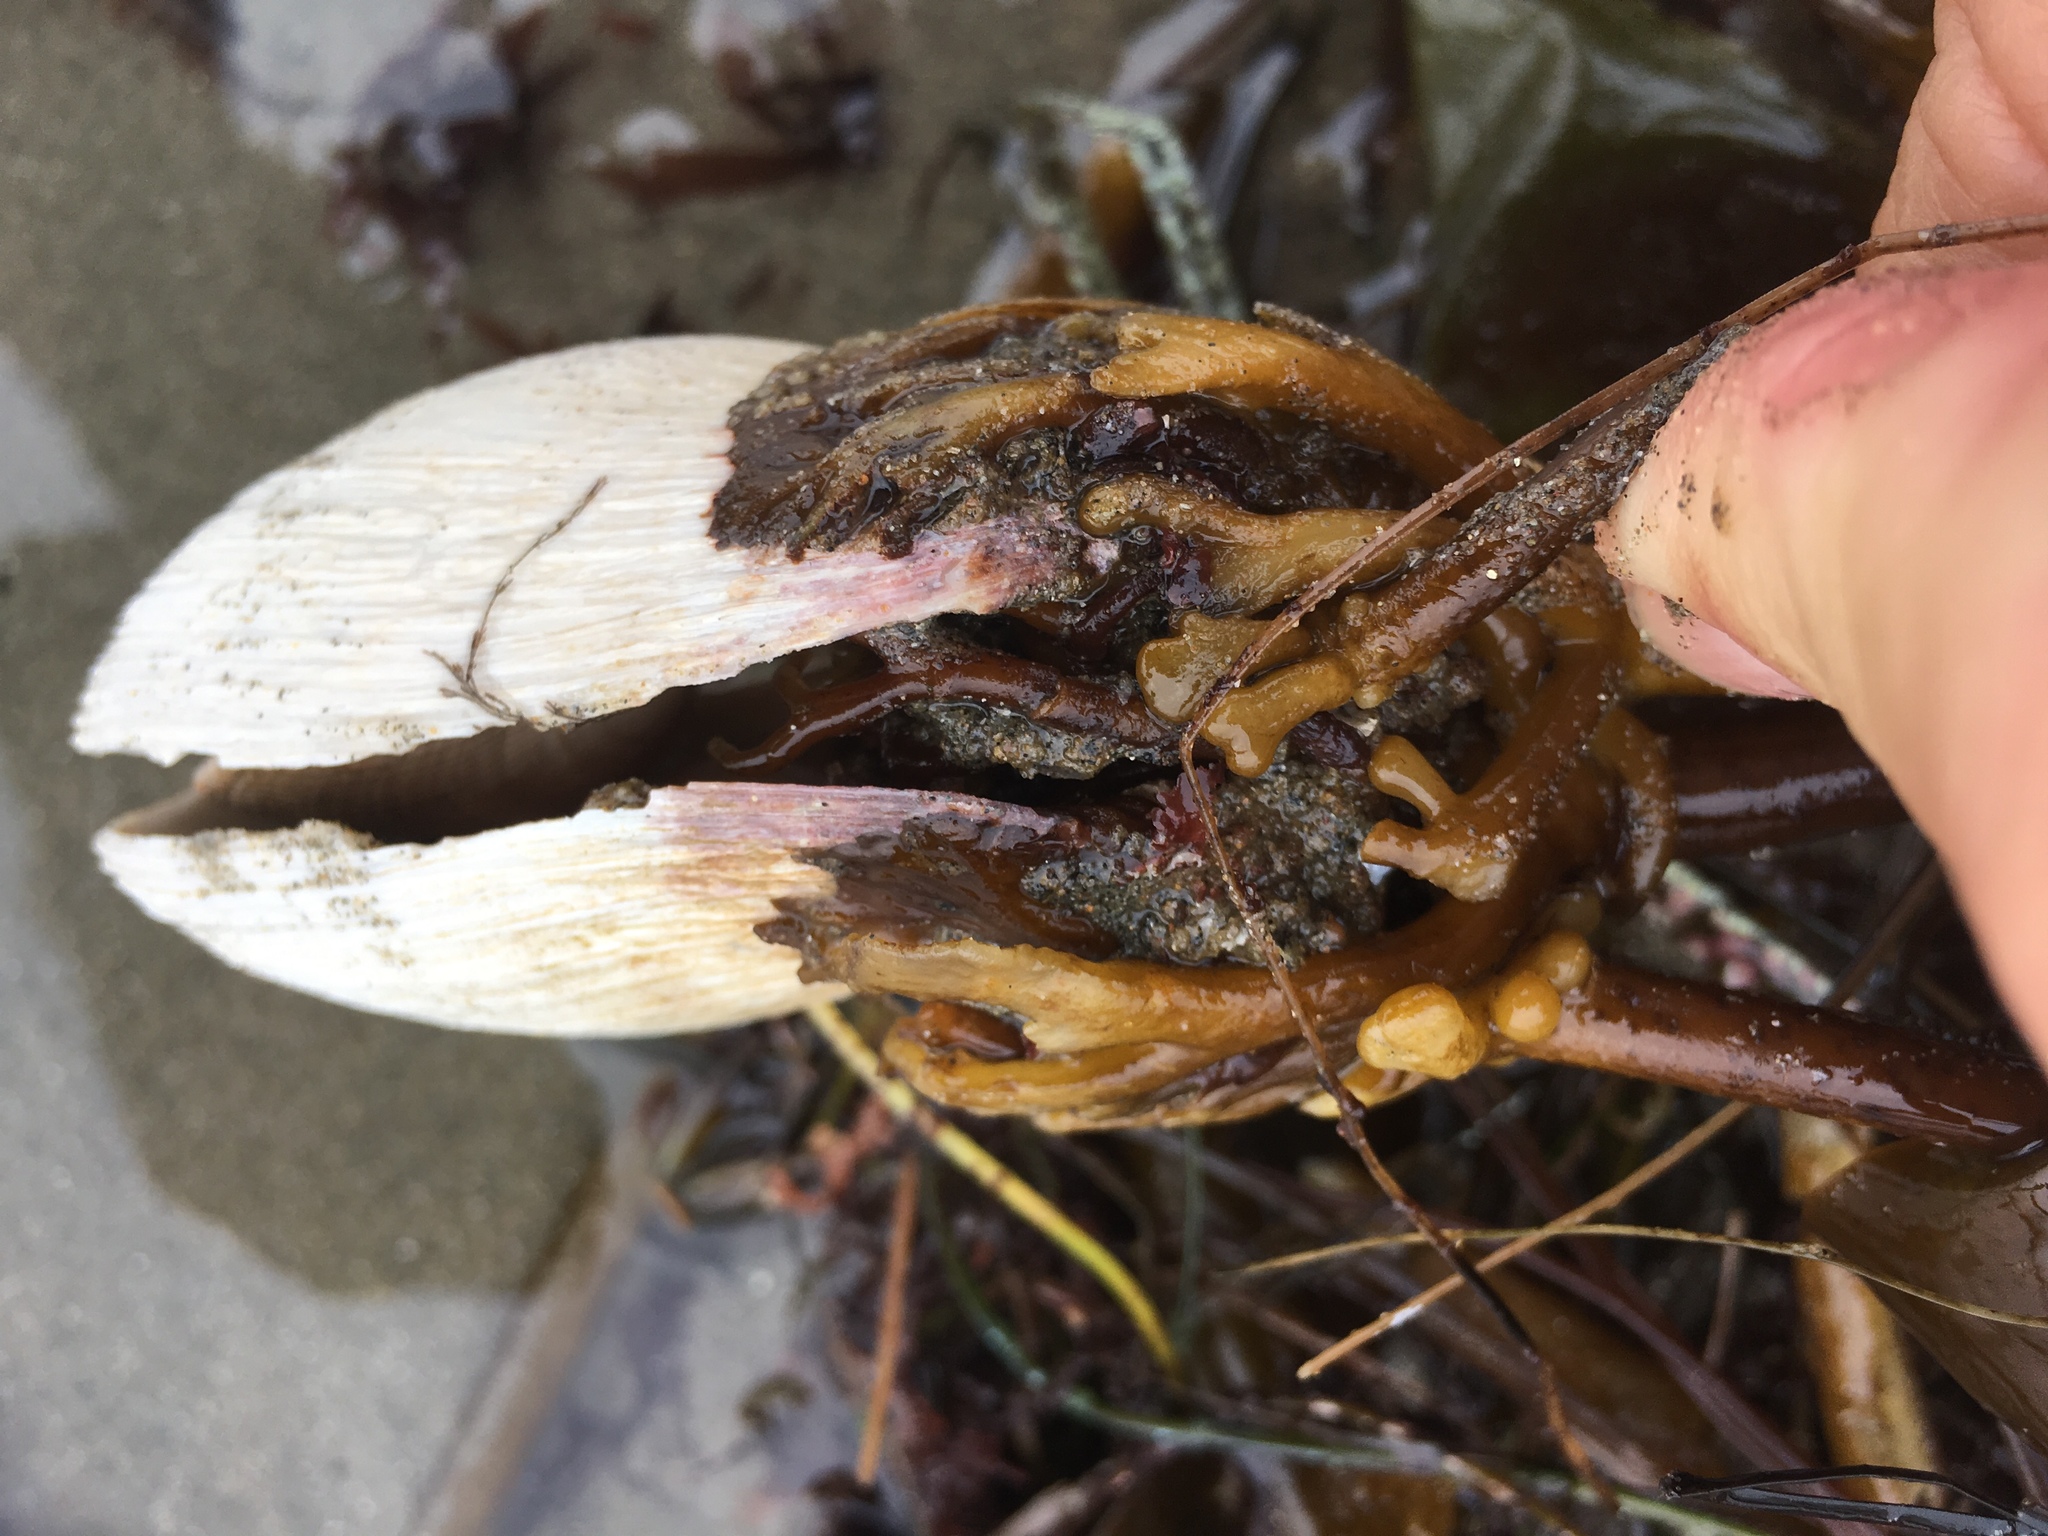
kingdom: Animalia
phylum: Mollusca
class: Bivalvia
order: Myida
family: Myidae
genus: Platyodon
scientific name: Platyodon cancellatus
